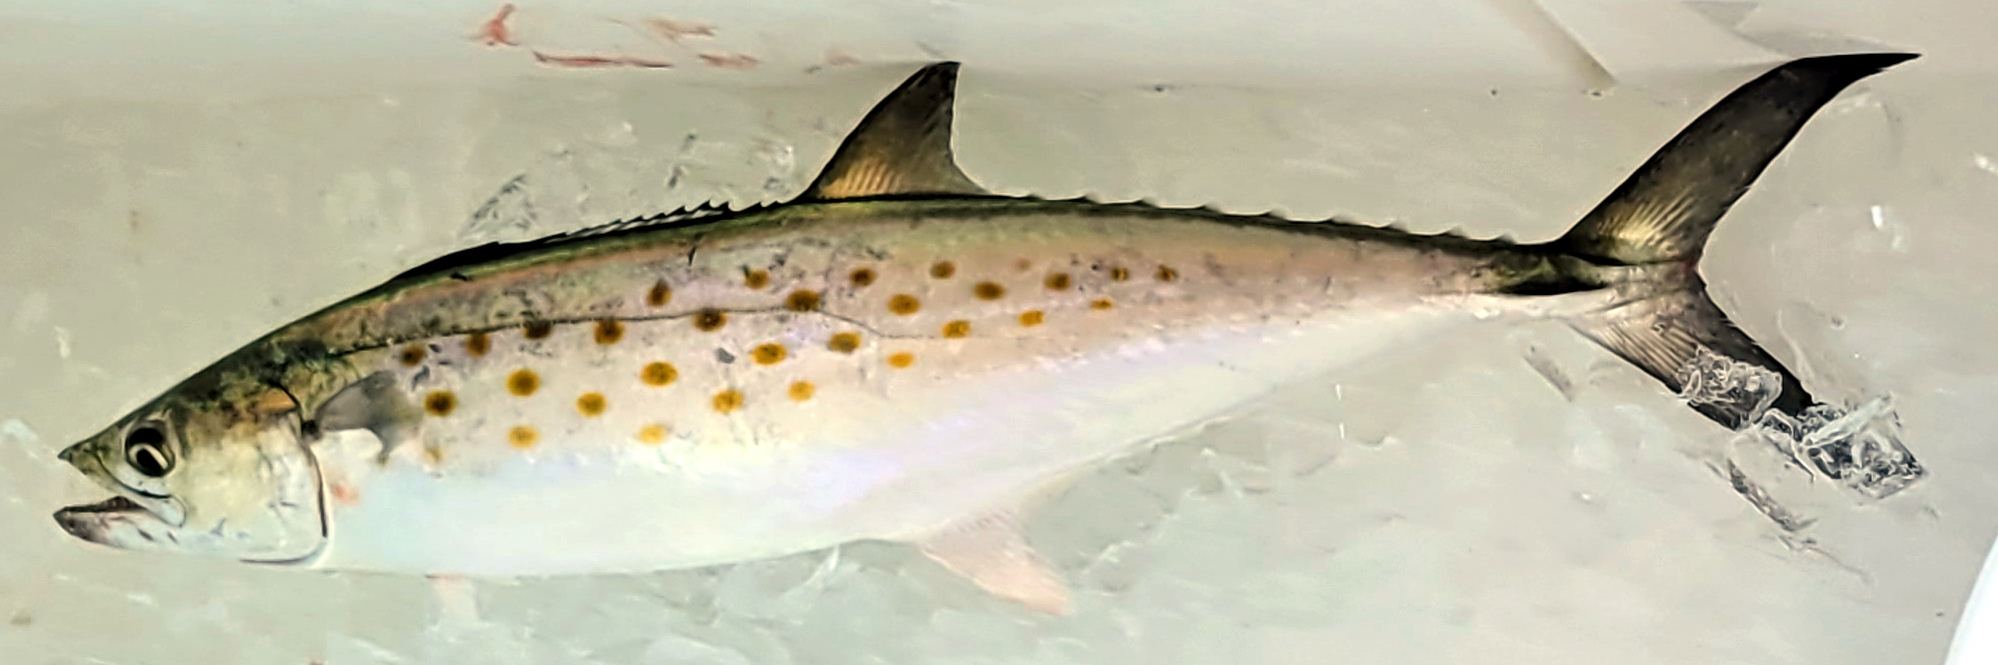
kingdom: Animalia
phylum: Chordata
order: Perciformes
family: Scombridae
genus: Scomberomorus
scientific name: Scomberomorus maculatus
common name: Spanish mackerel
